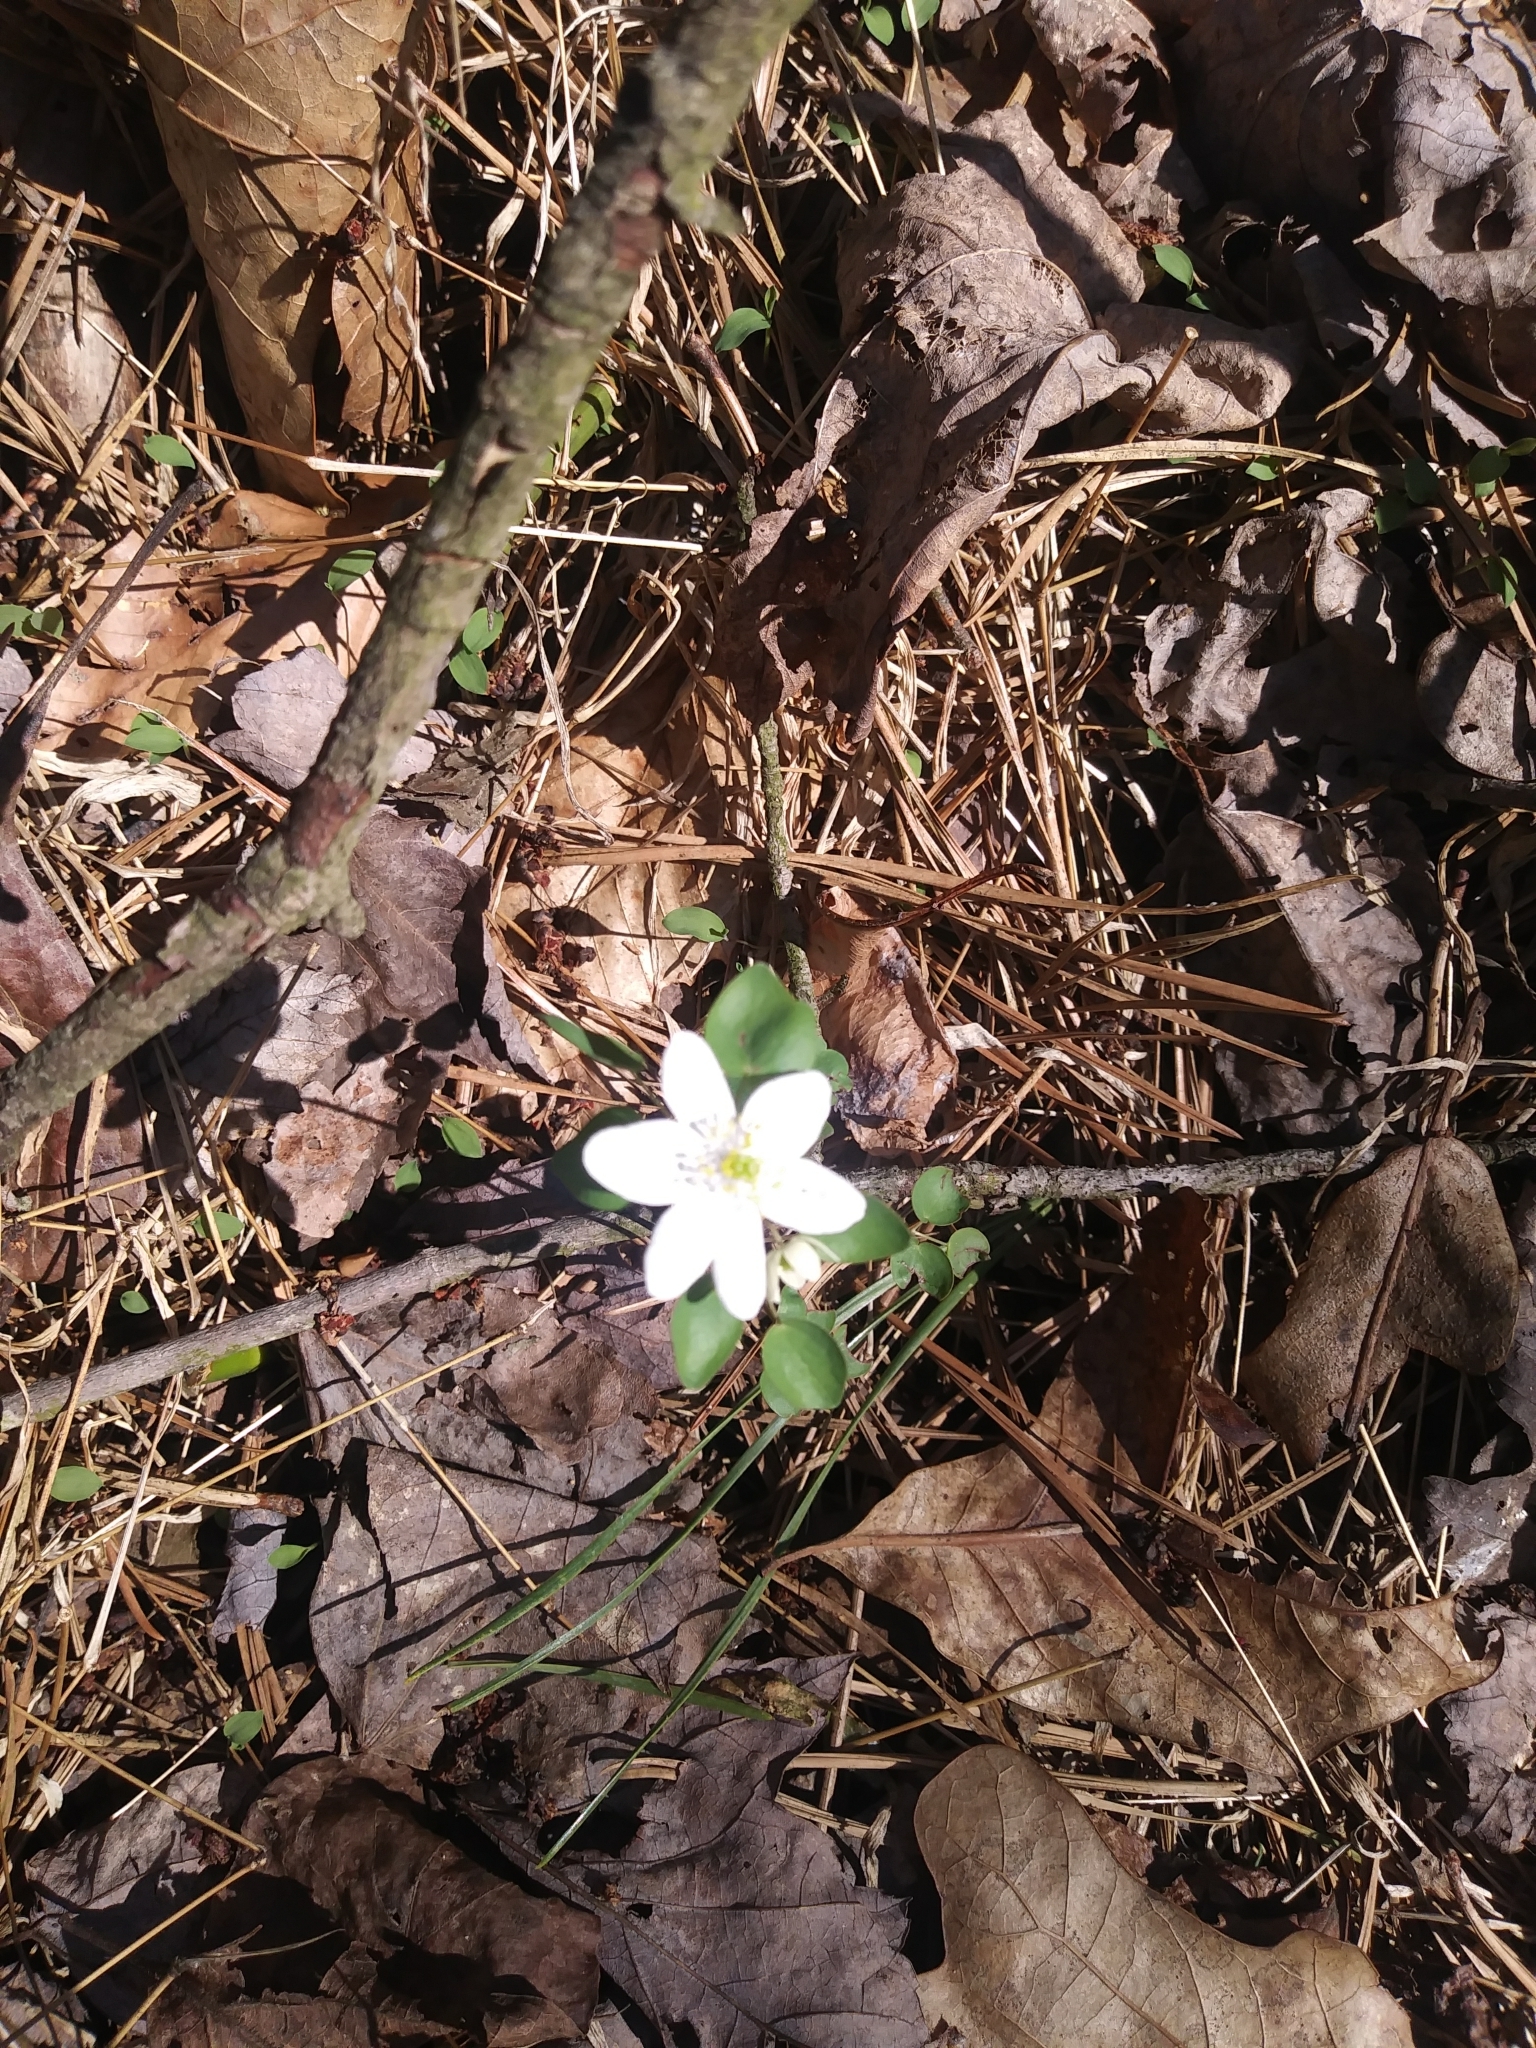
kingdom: Plantae
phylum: Tracheophyta
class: Magnoliopsida
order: Ranunculales
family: Ranunculaceae
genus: Thalictrum
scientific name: Thalictrum thalictroides
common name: Rue-anemone
